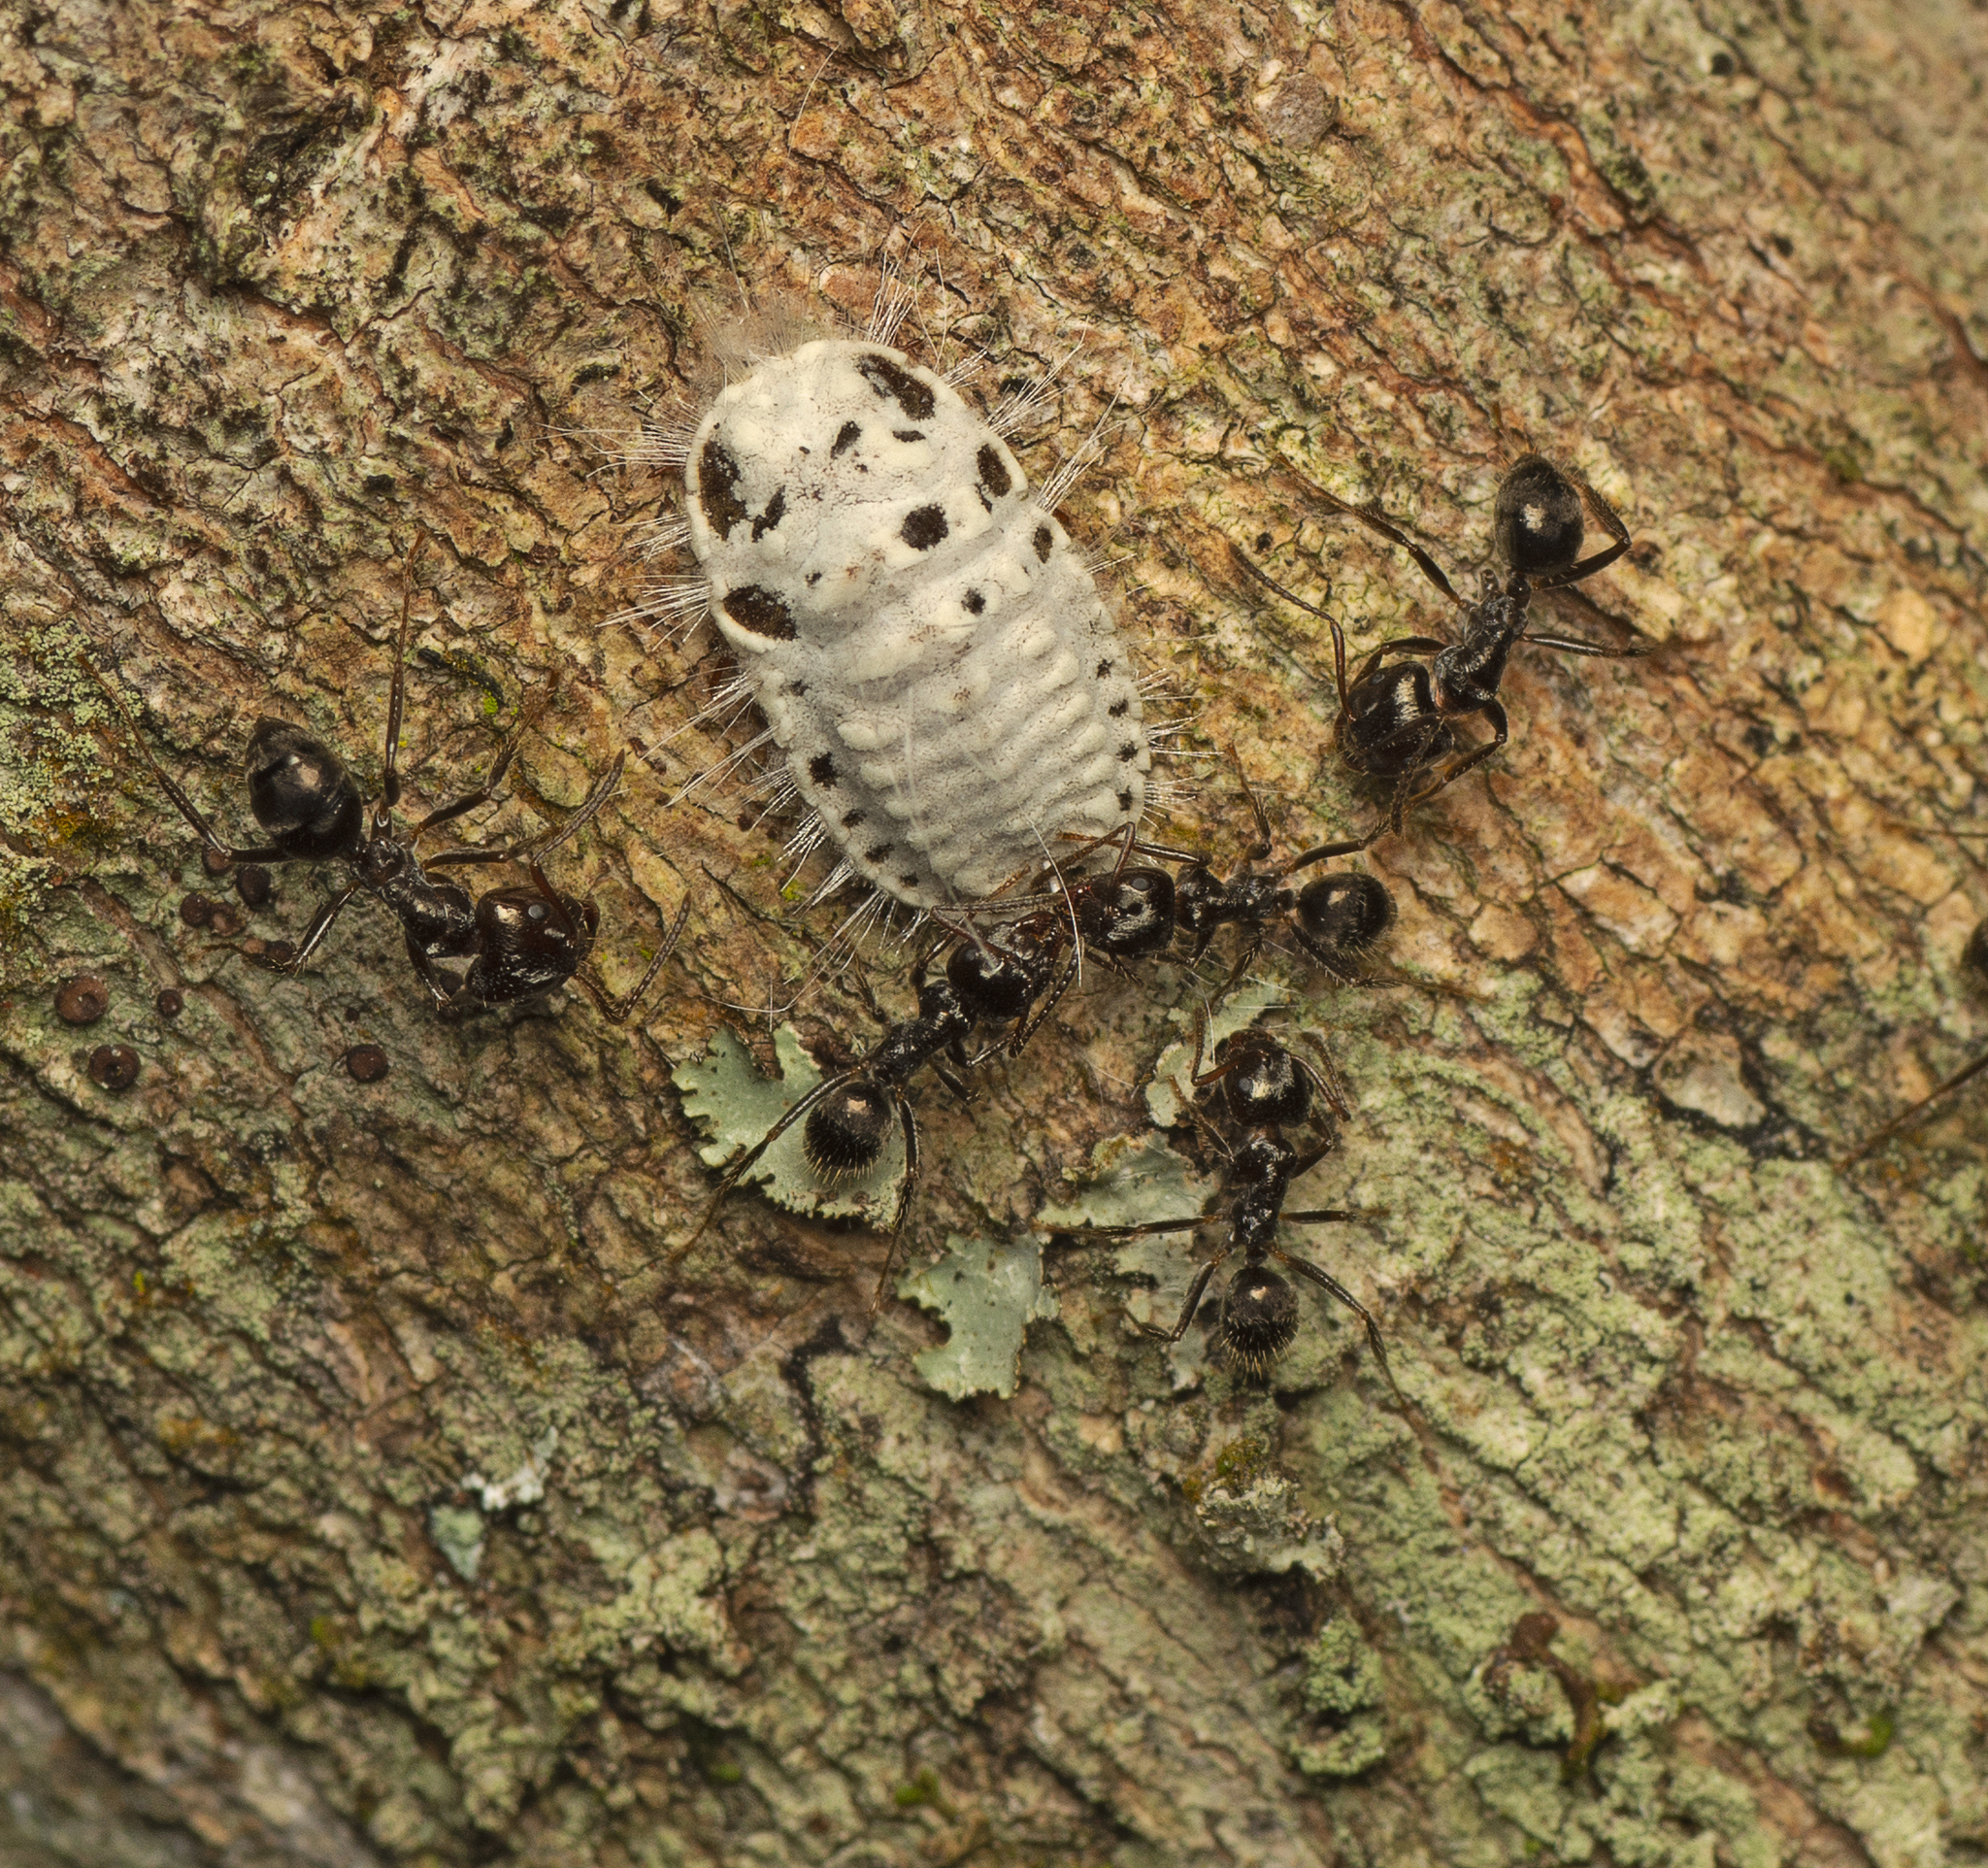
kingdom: Animalia
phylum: Arthropoda
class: Insecta
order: Hymenoptera
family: Formicidae
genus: Notoncus
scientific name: Notoncus capitatus
